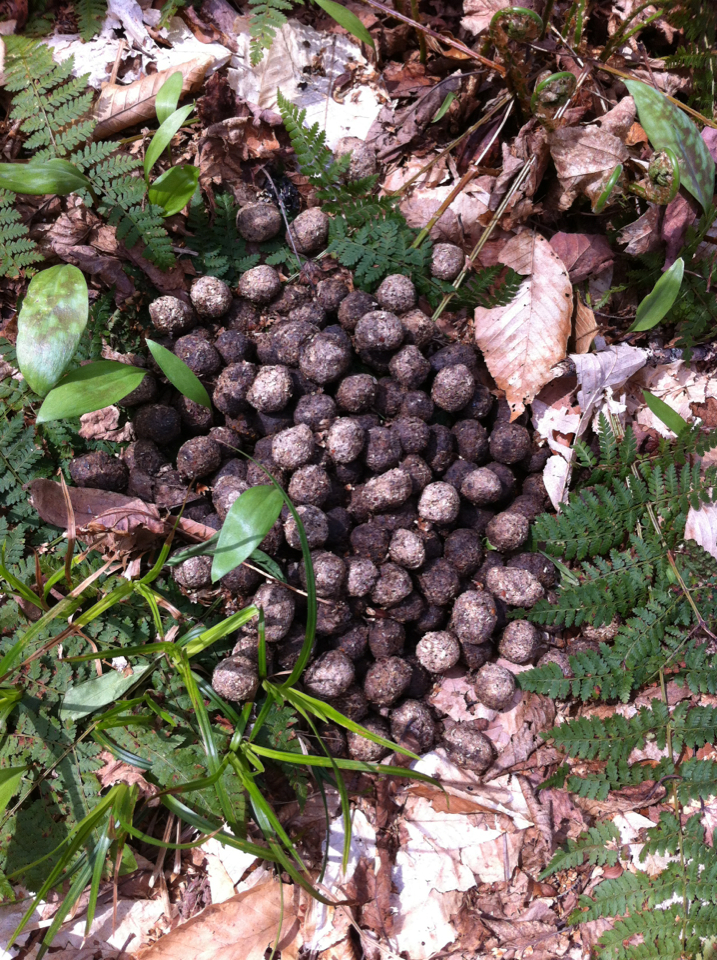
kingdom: Animalia
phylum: Chordata
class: Mammalia
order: Artiodactyla
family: Cervidae
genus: Alces
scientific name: Alces alces
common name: Moose
